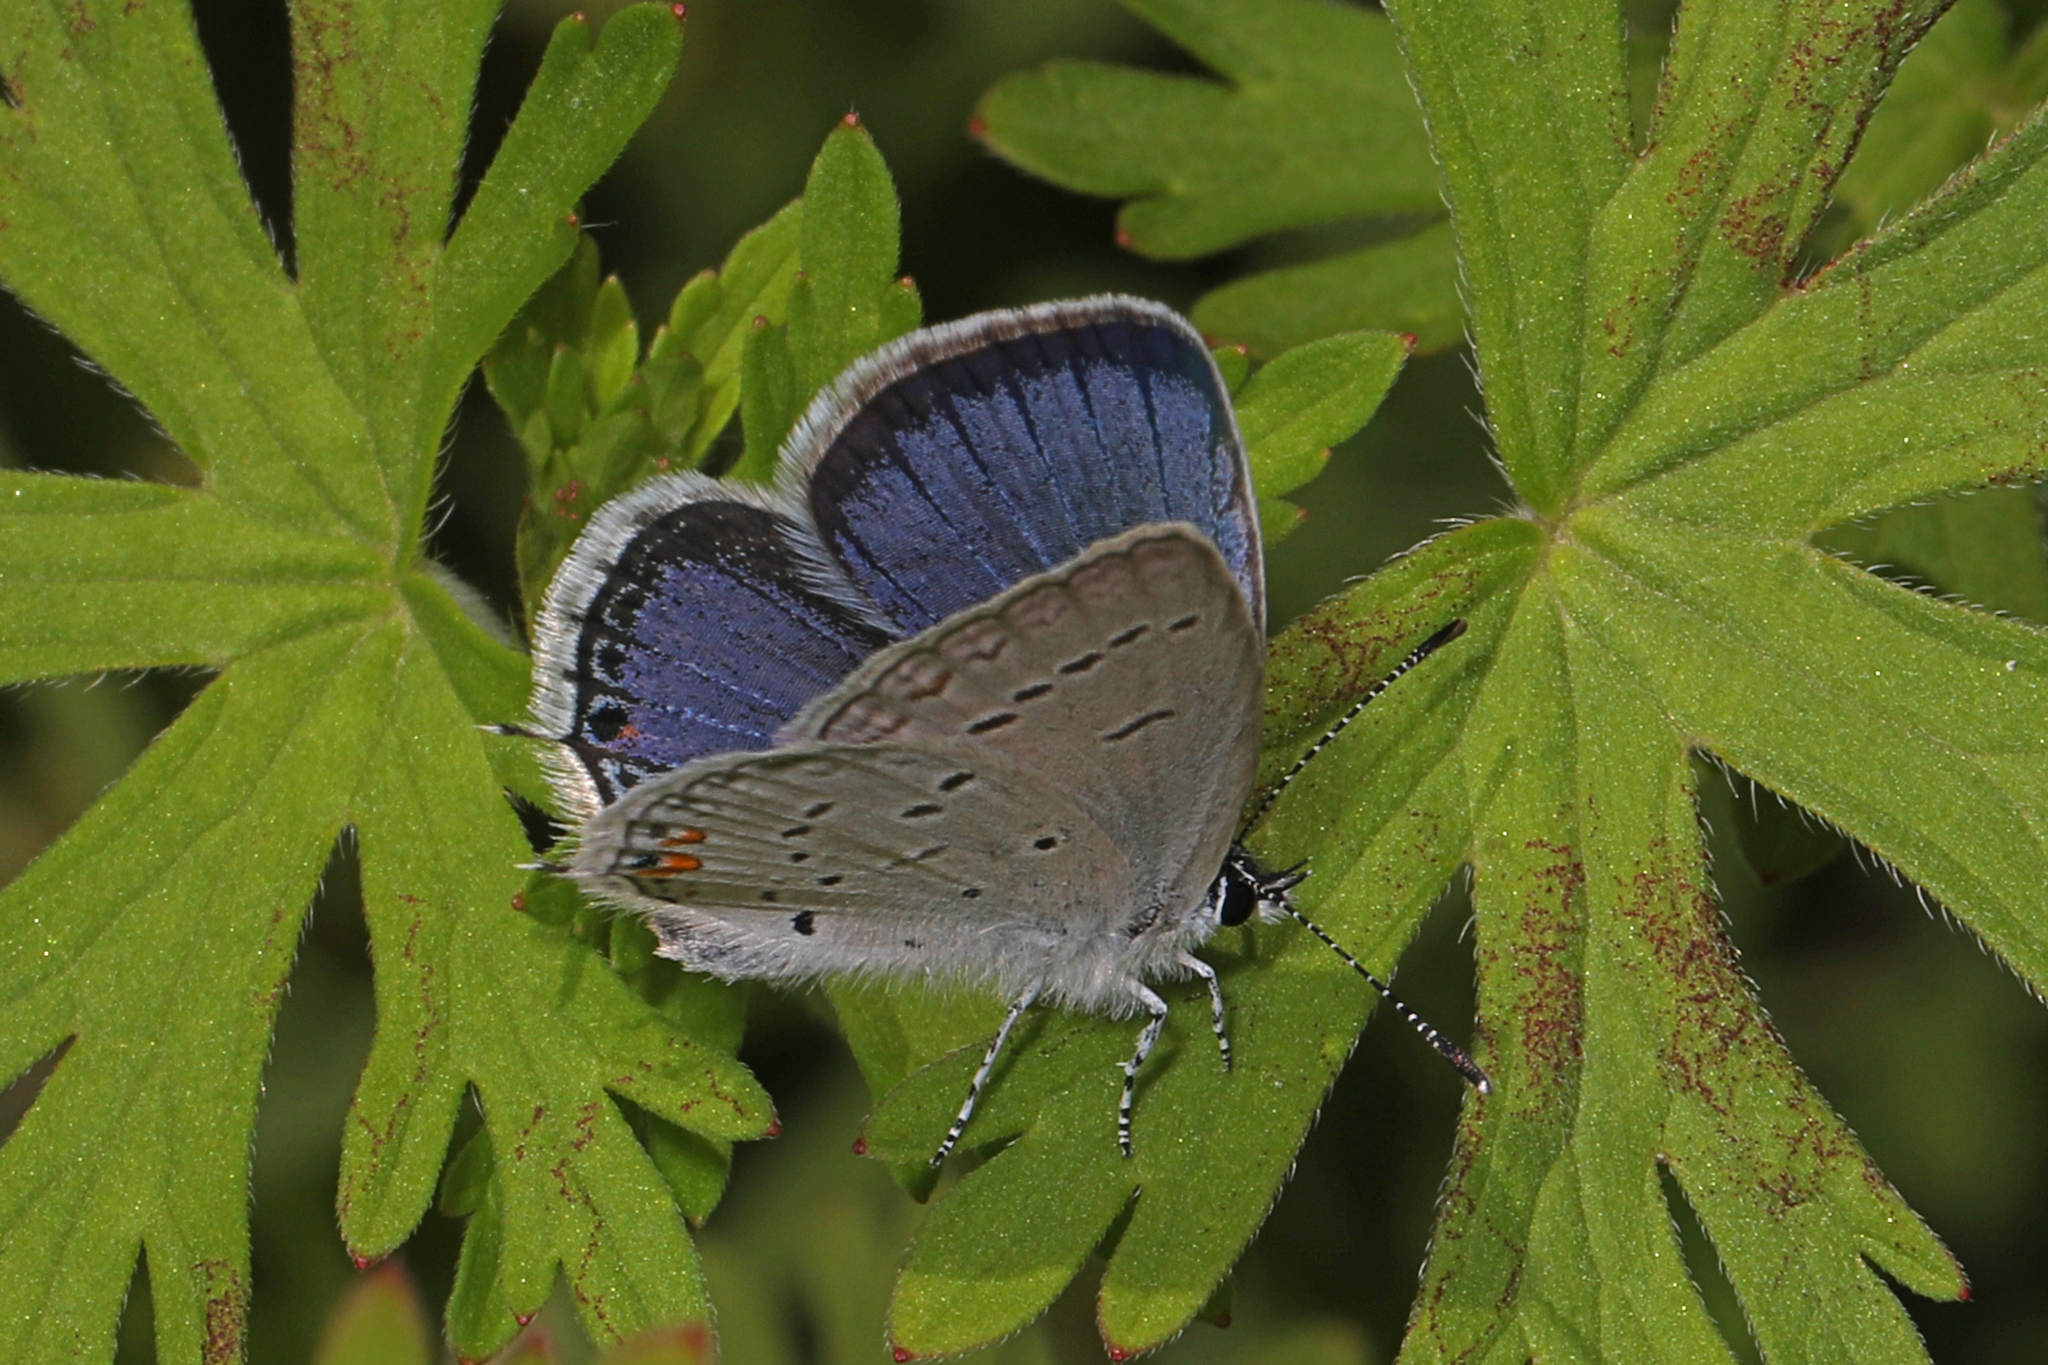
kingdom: Animalia
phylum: Arthropoda
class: Insecta
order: Lepidoptera
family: Lycaenidae
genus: Elkalyce
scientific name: Elkalyce comyntas
